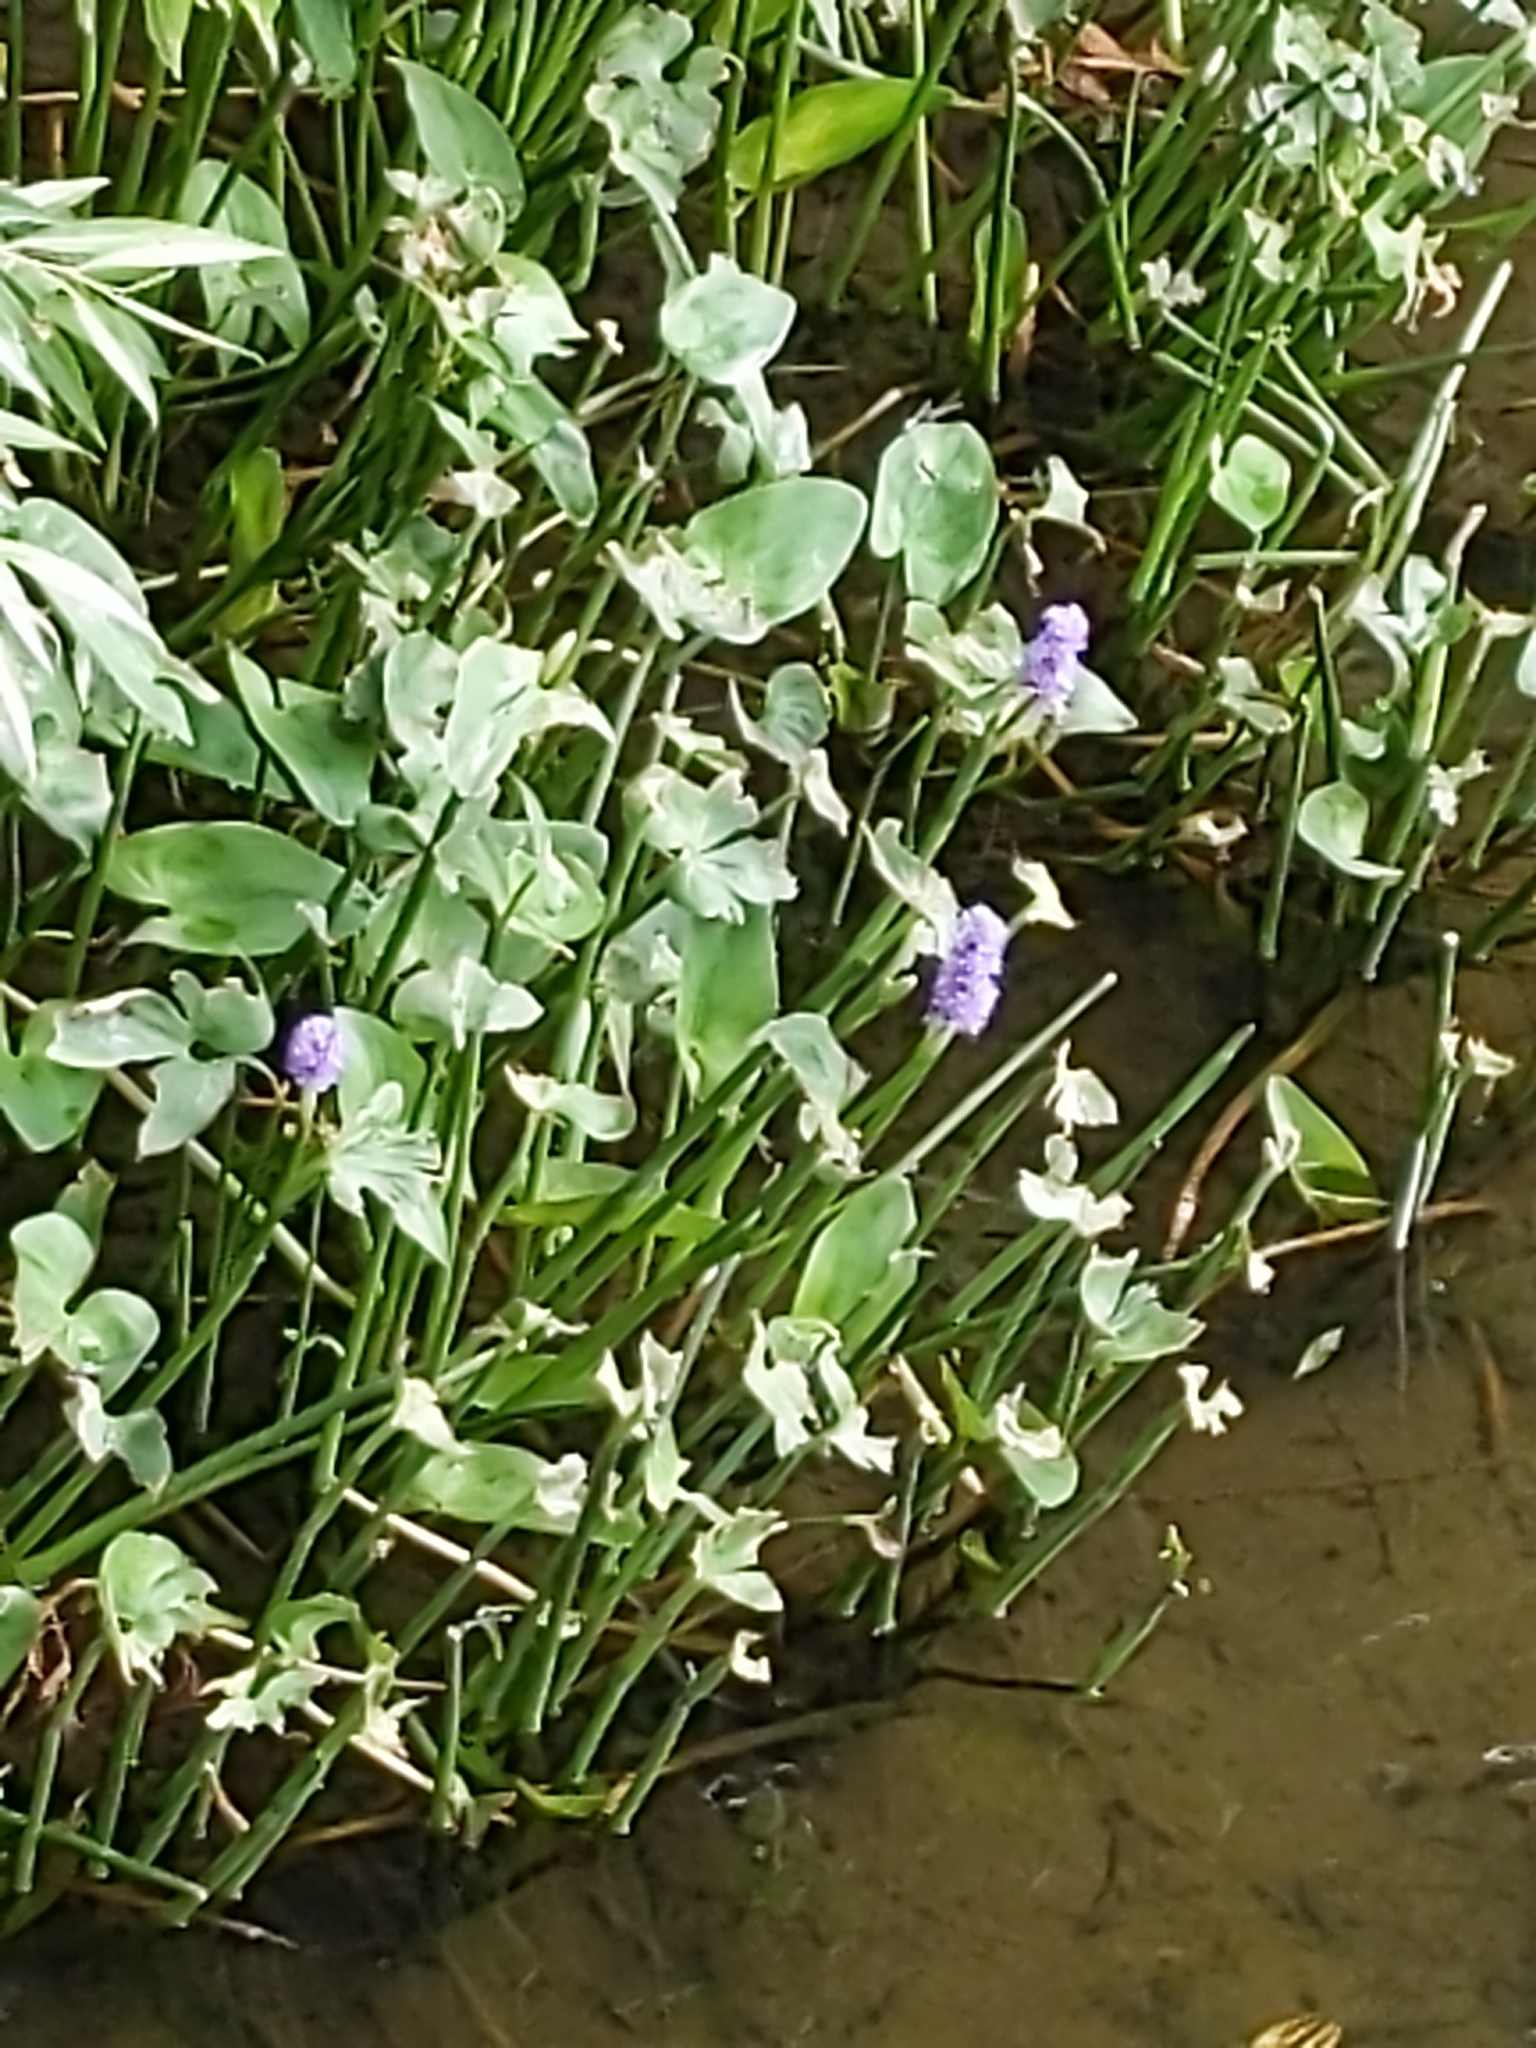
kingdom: Plantae
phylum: Tracheophyta
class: Liliopsida
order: Commelinales
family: Pontederiaceae
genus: Pontederia
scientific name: Pontederia cordata
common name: Pickerelweed
